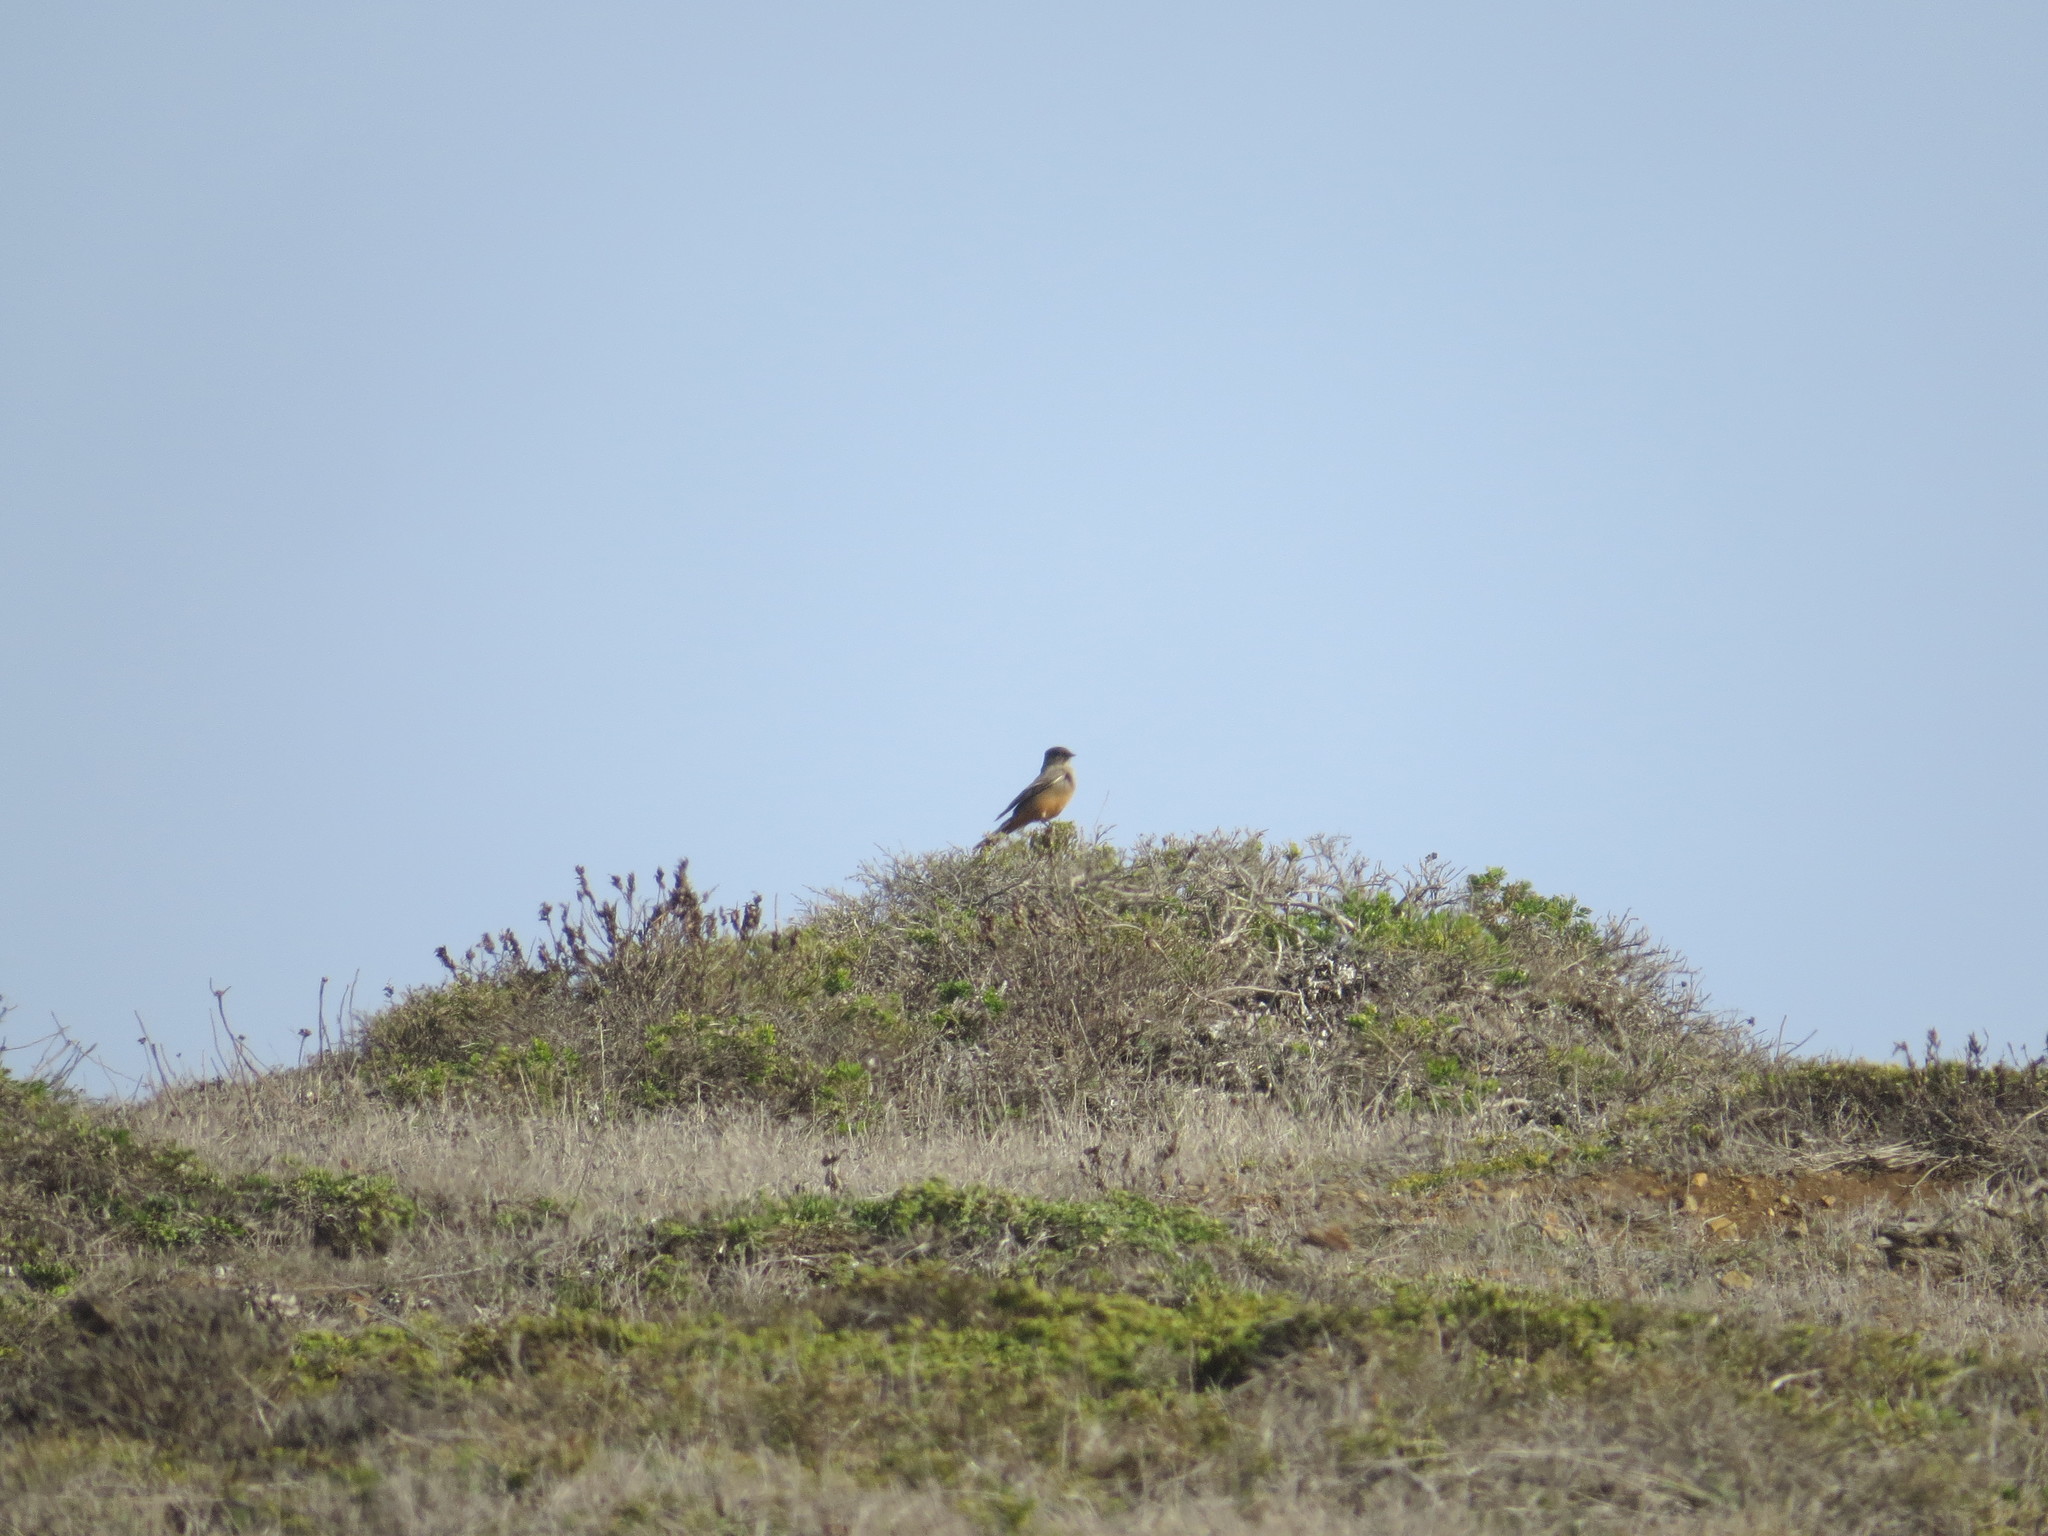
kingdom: Animalia
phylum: Chordata
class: Aves
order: Passeriformes
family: Tyrannidae
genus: Sayornis
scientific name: Sayornis saya
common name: Say's phoebe
